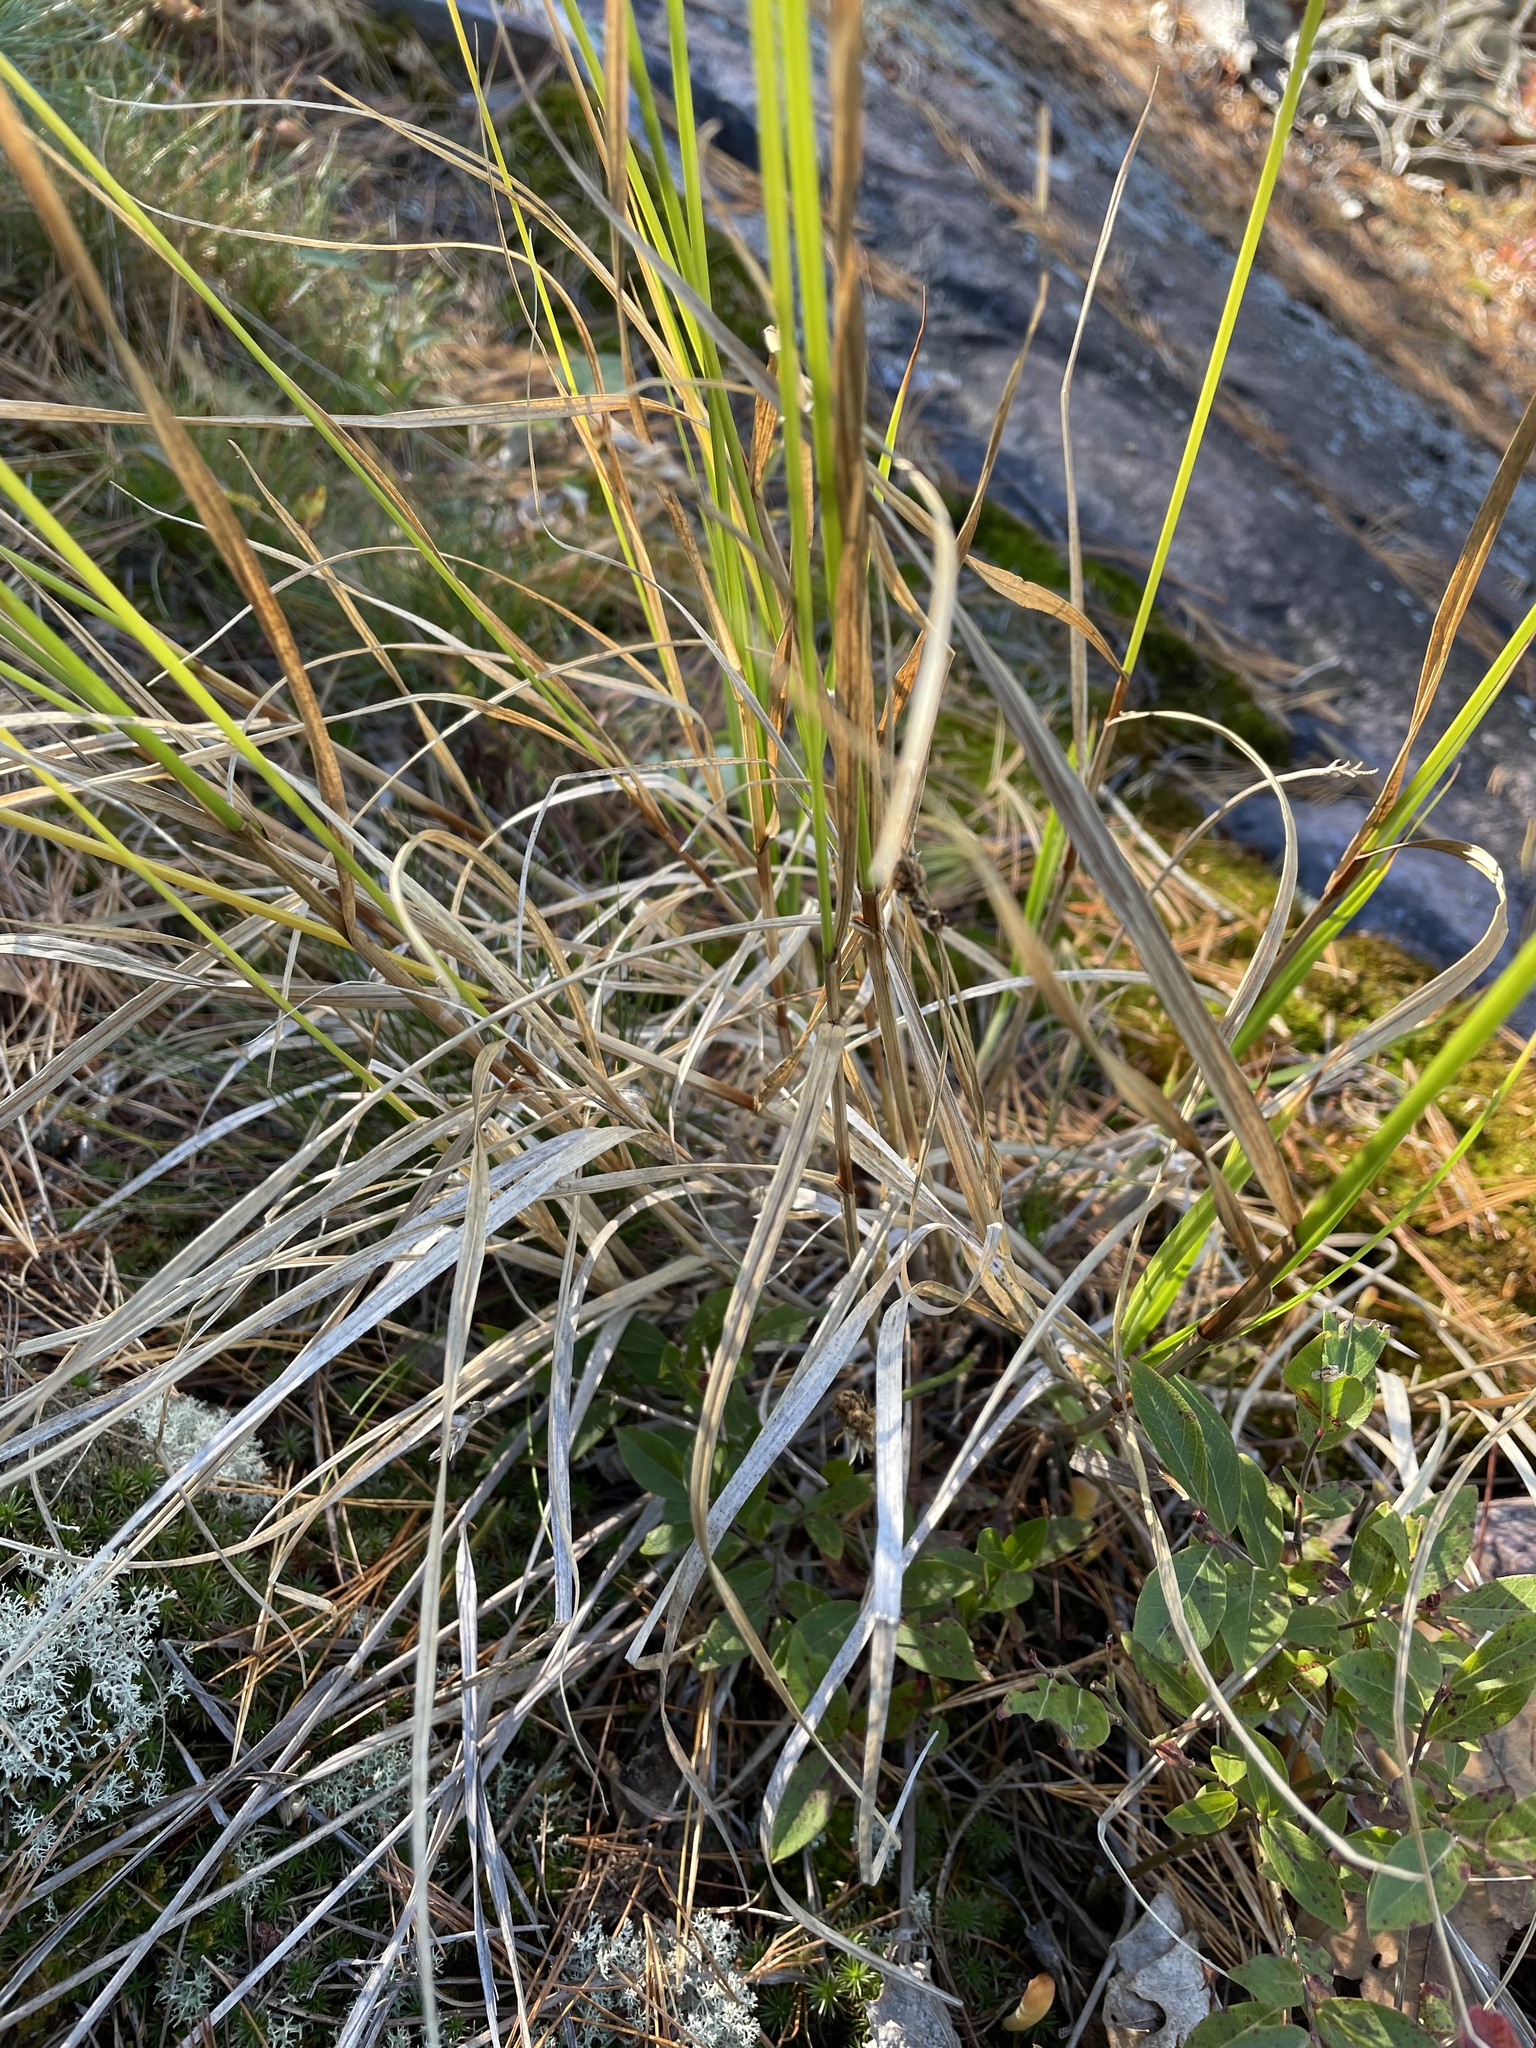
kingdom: Plantae
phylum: Tracheophyta
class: Liliopsida
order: Poales
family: Cyperaceae
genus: Carex
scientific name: Carex cumulata
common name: Accumulating sedge
